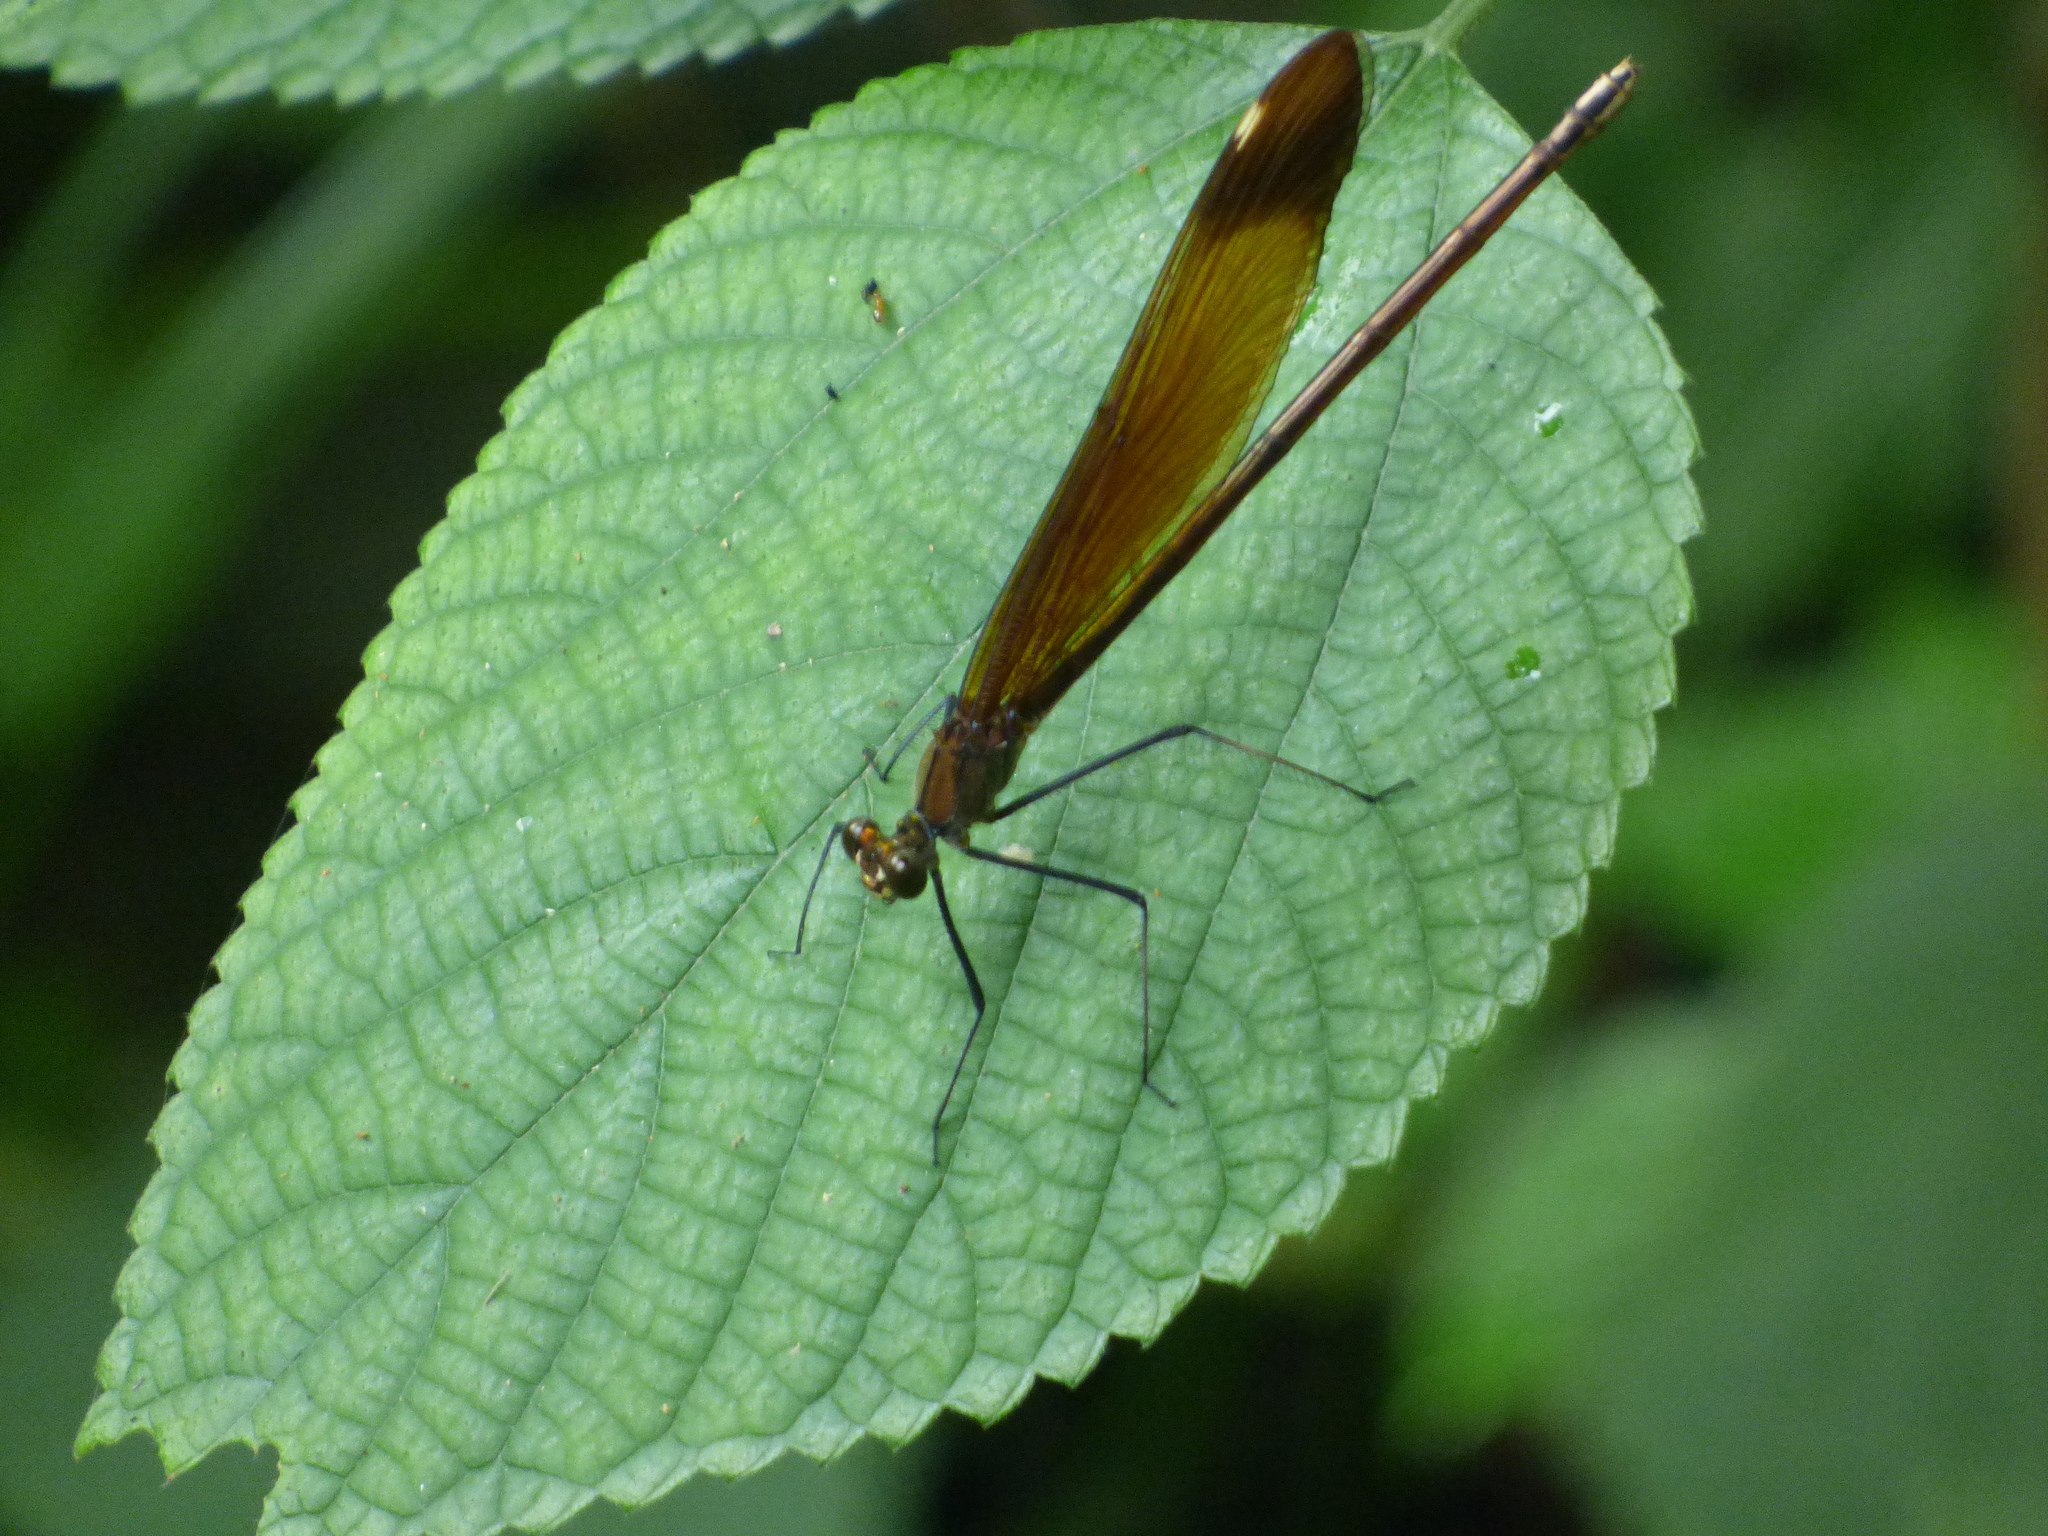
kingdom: Animalia
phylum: Arthropoda
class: Insecta
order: Odonata
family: Calopterygidae
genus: Calopteryx
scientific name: Calopteryx cornelia
